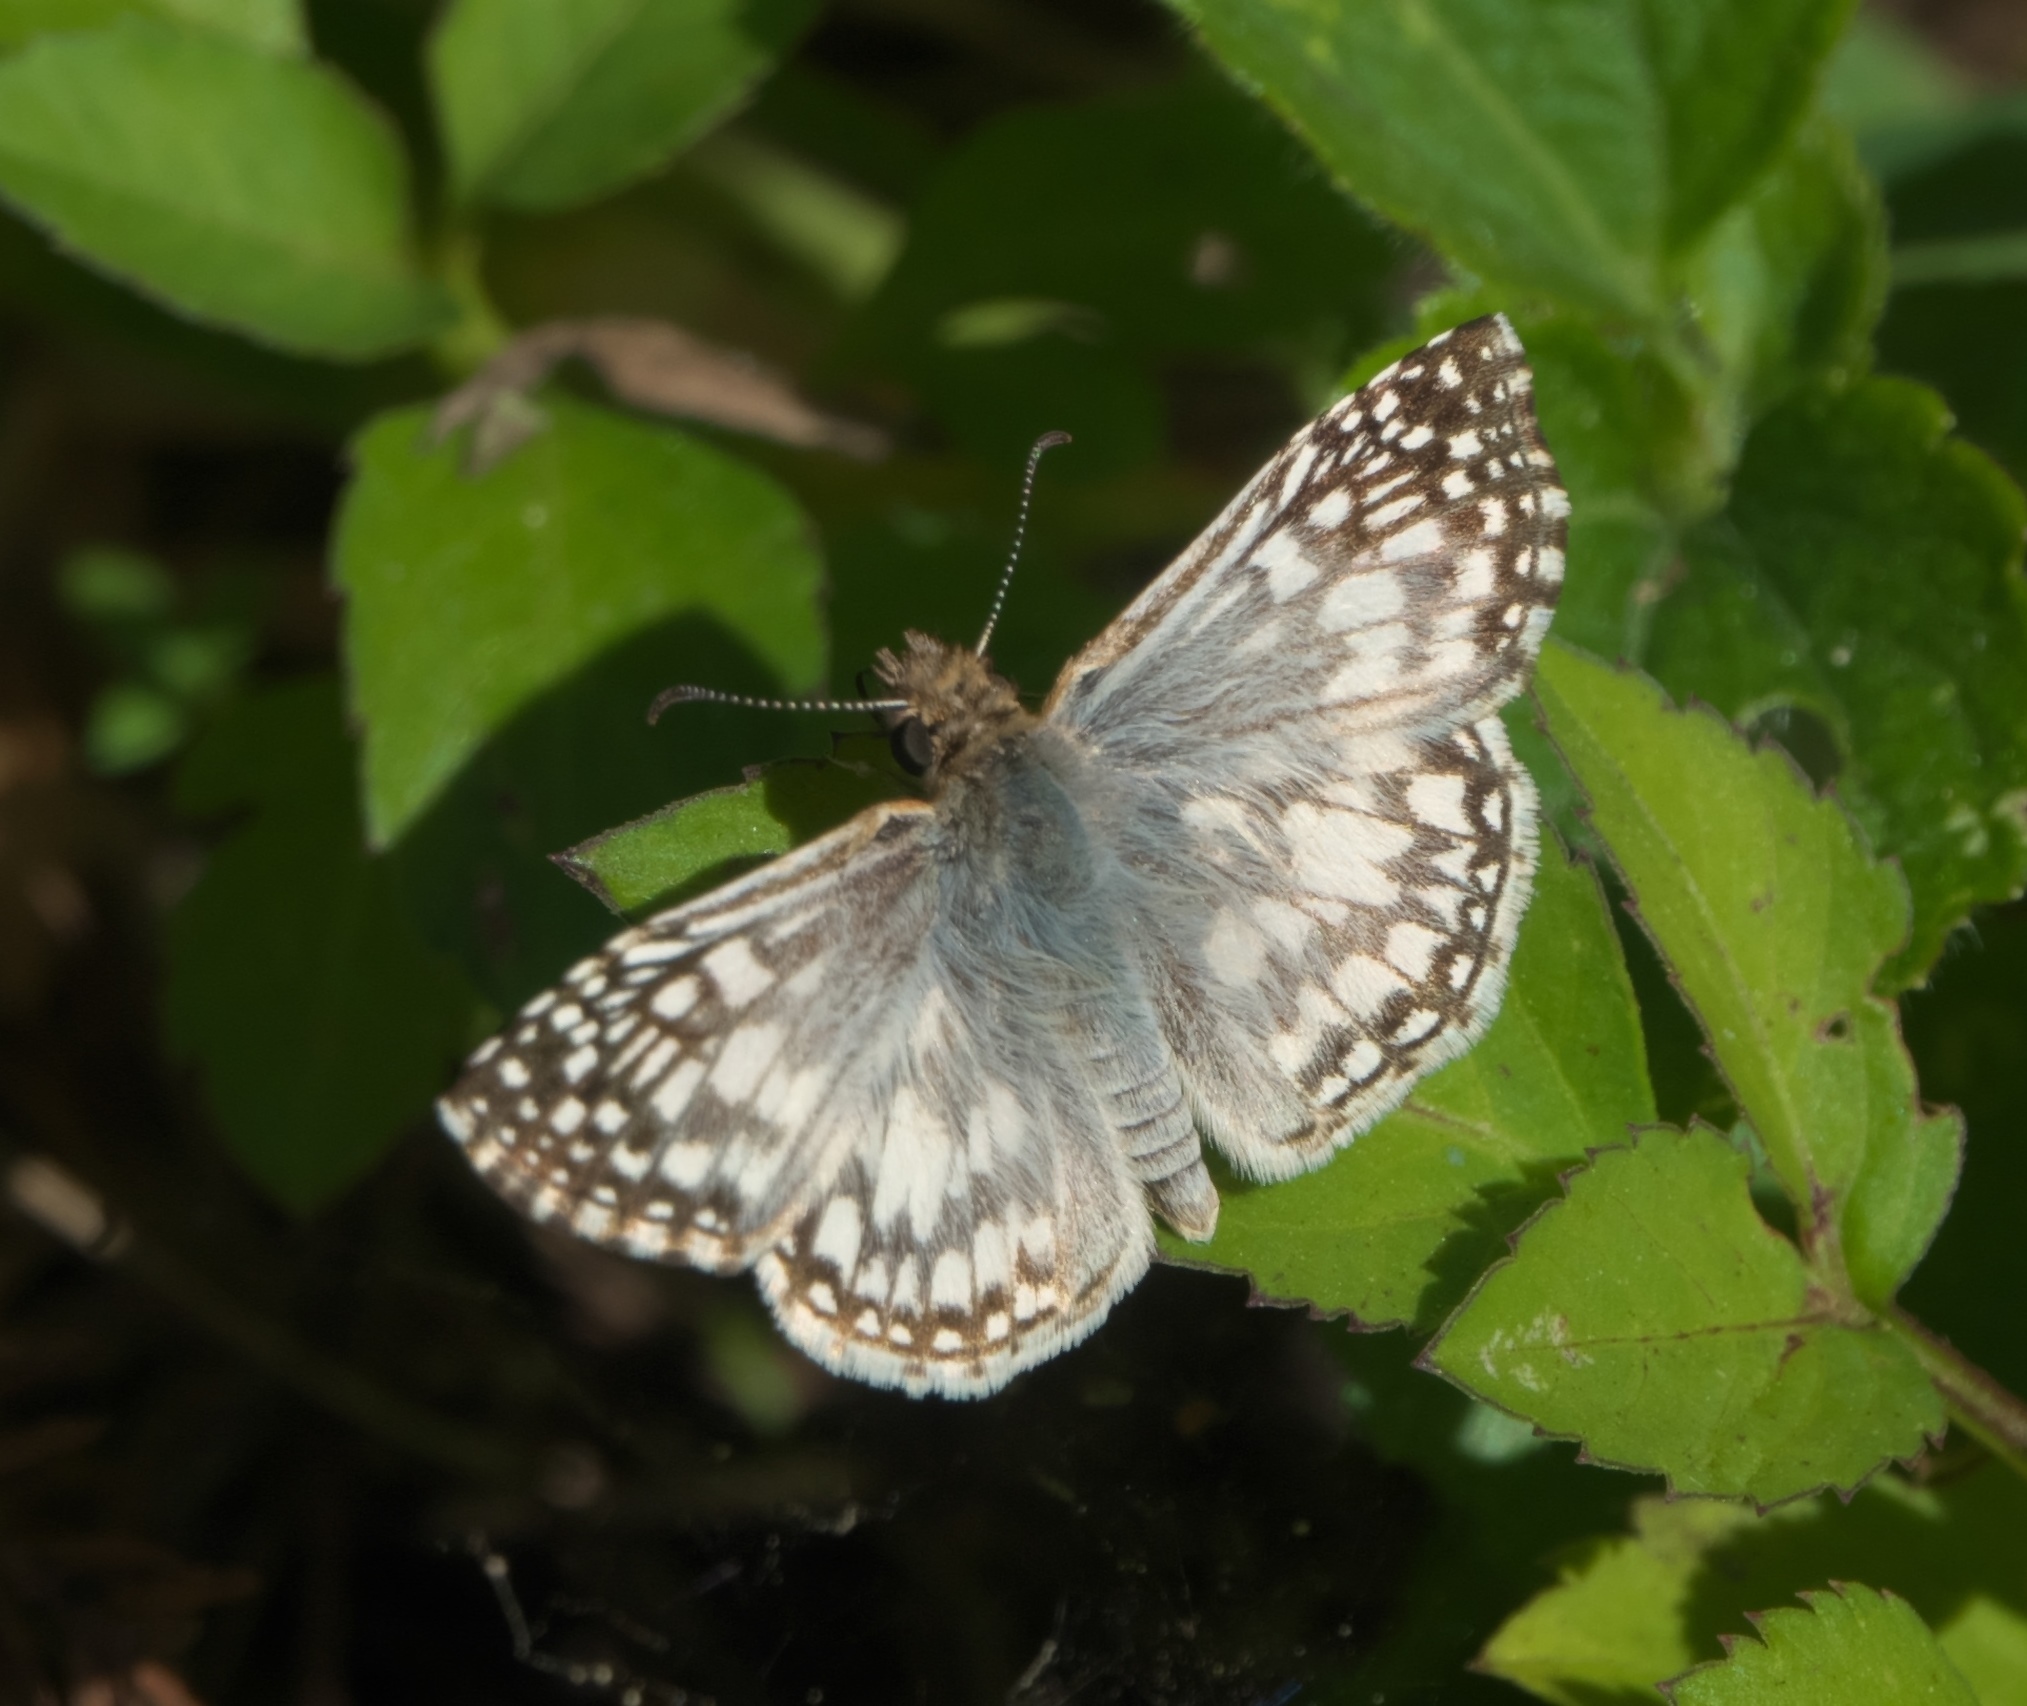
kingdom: Animalia
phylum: Arthropoda
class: Insecta
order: Lepidoptera
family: Hesperiidae
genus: Pyrgus
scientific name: Pyrgus oileus
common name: Tropical checkered-skipper
